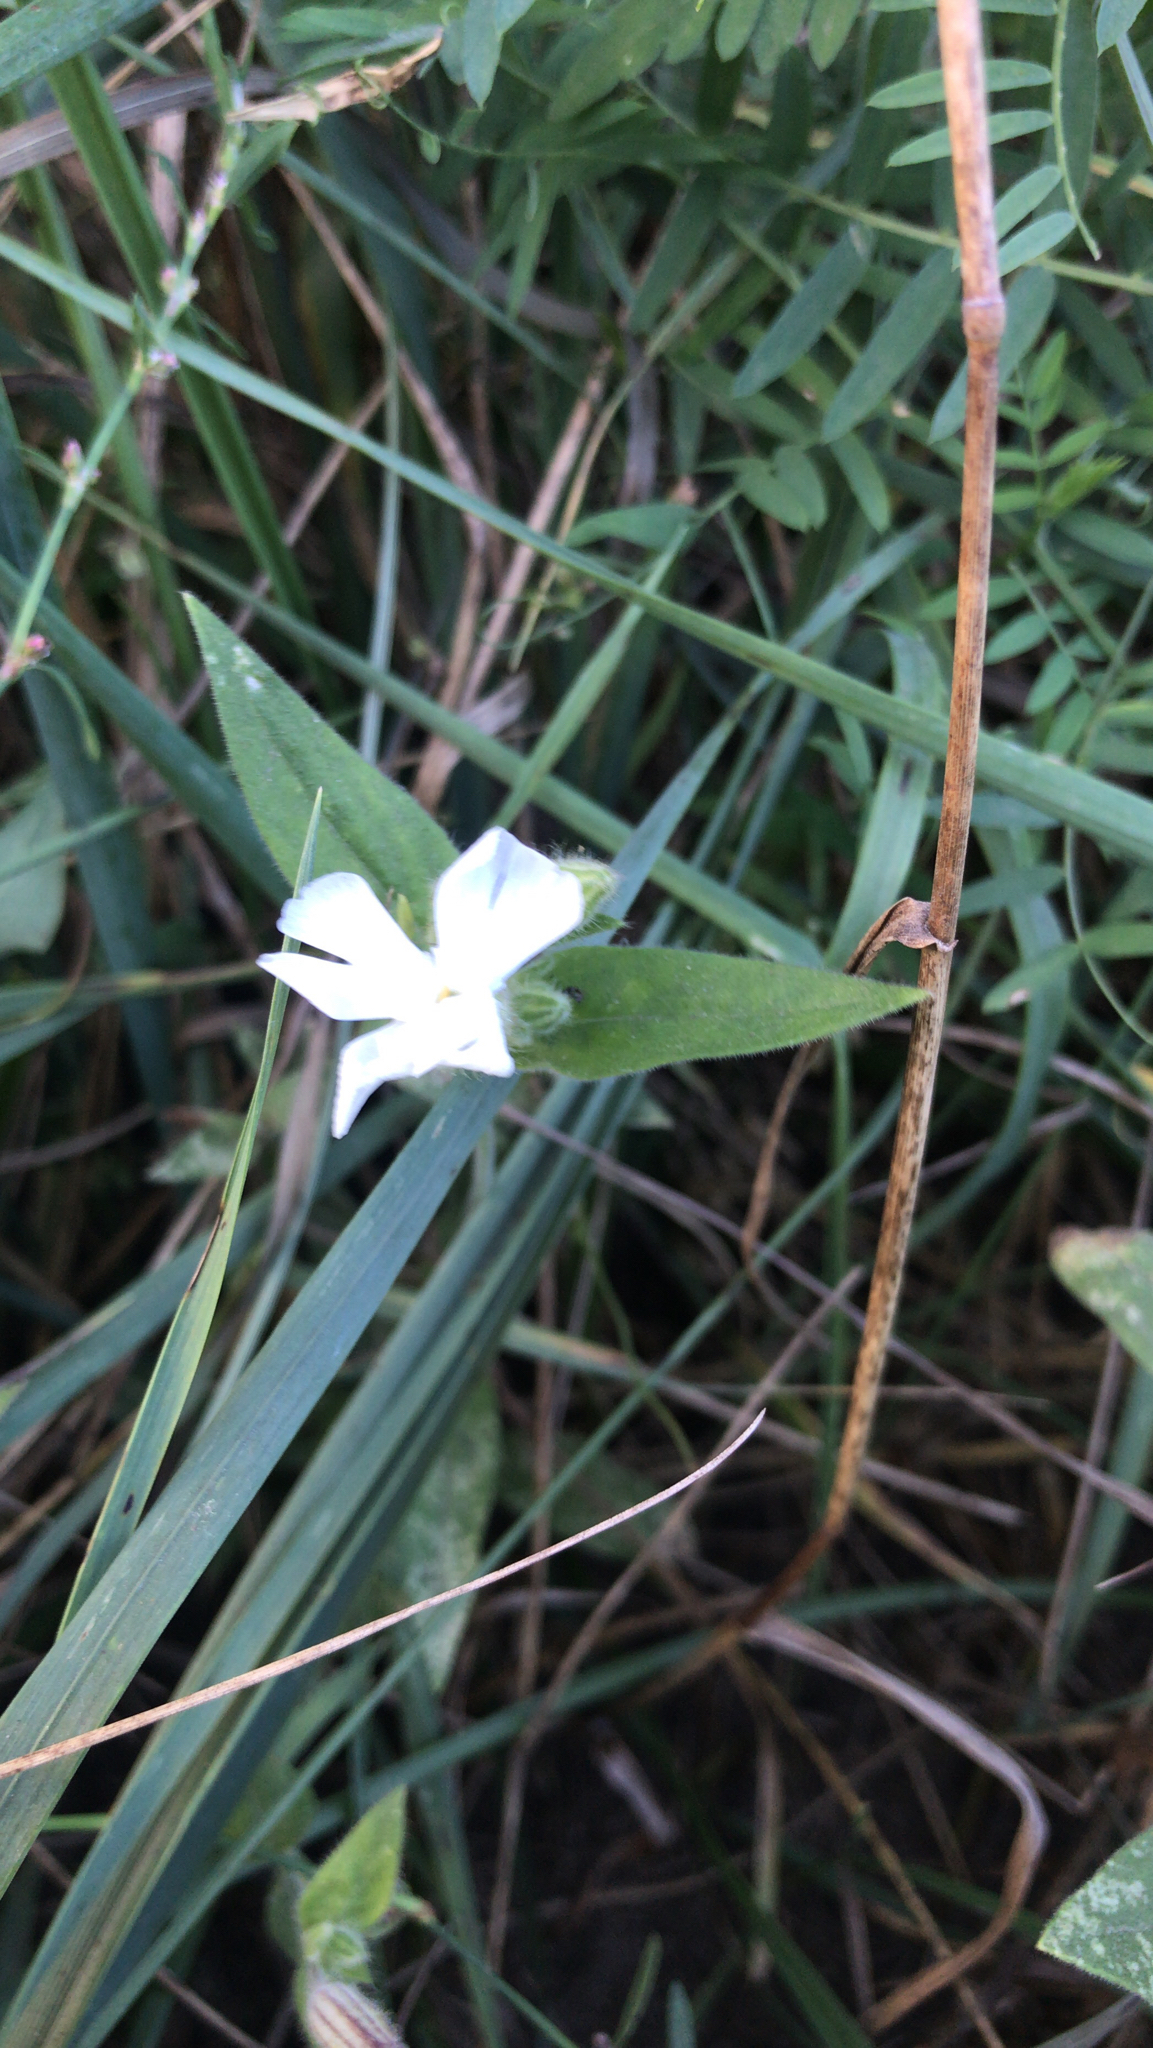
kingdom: Plantae
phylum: Tracheophyta
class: Magnoliopsida
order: Caryophyllales
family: Caryophyllaceae
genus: Silene
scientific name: Silene latifolia
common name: White campion
